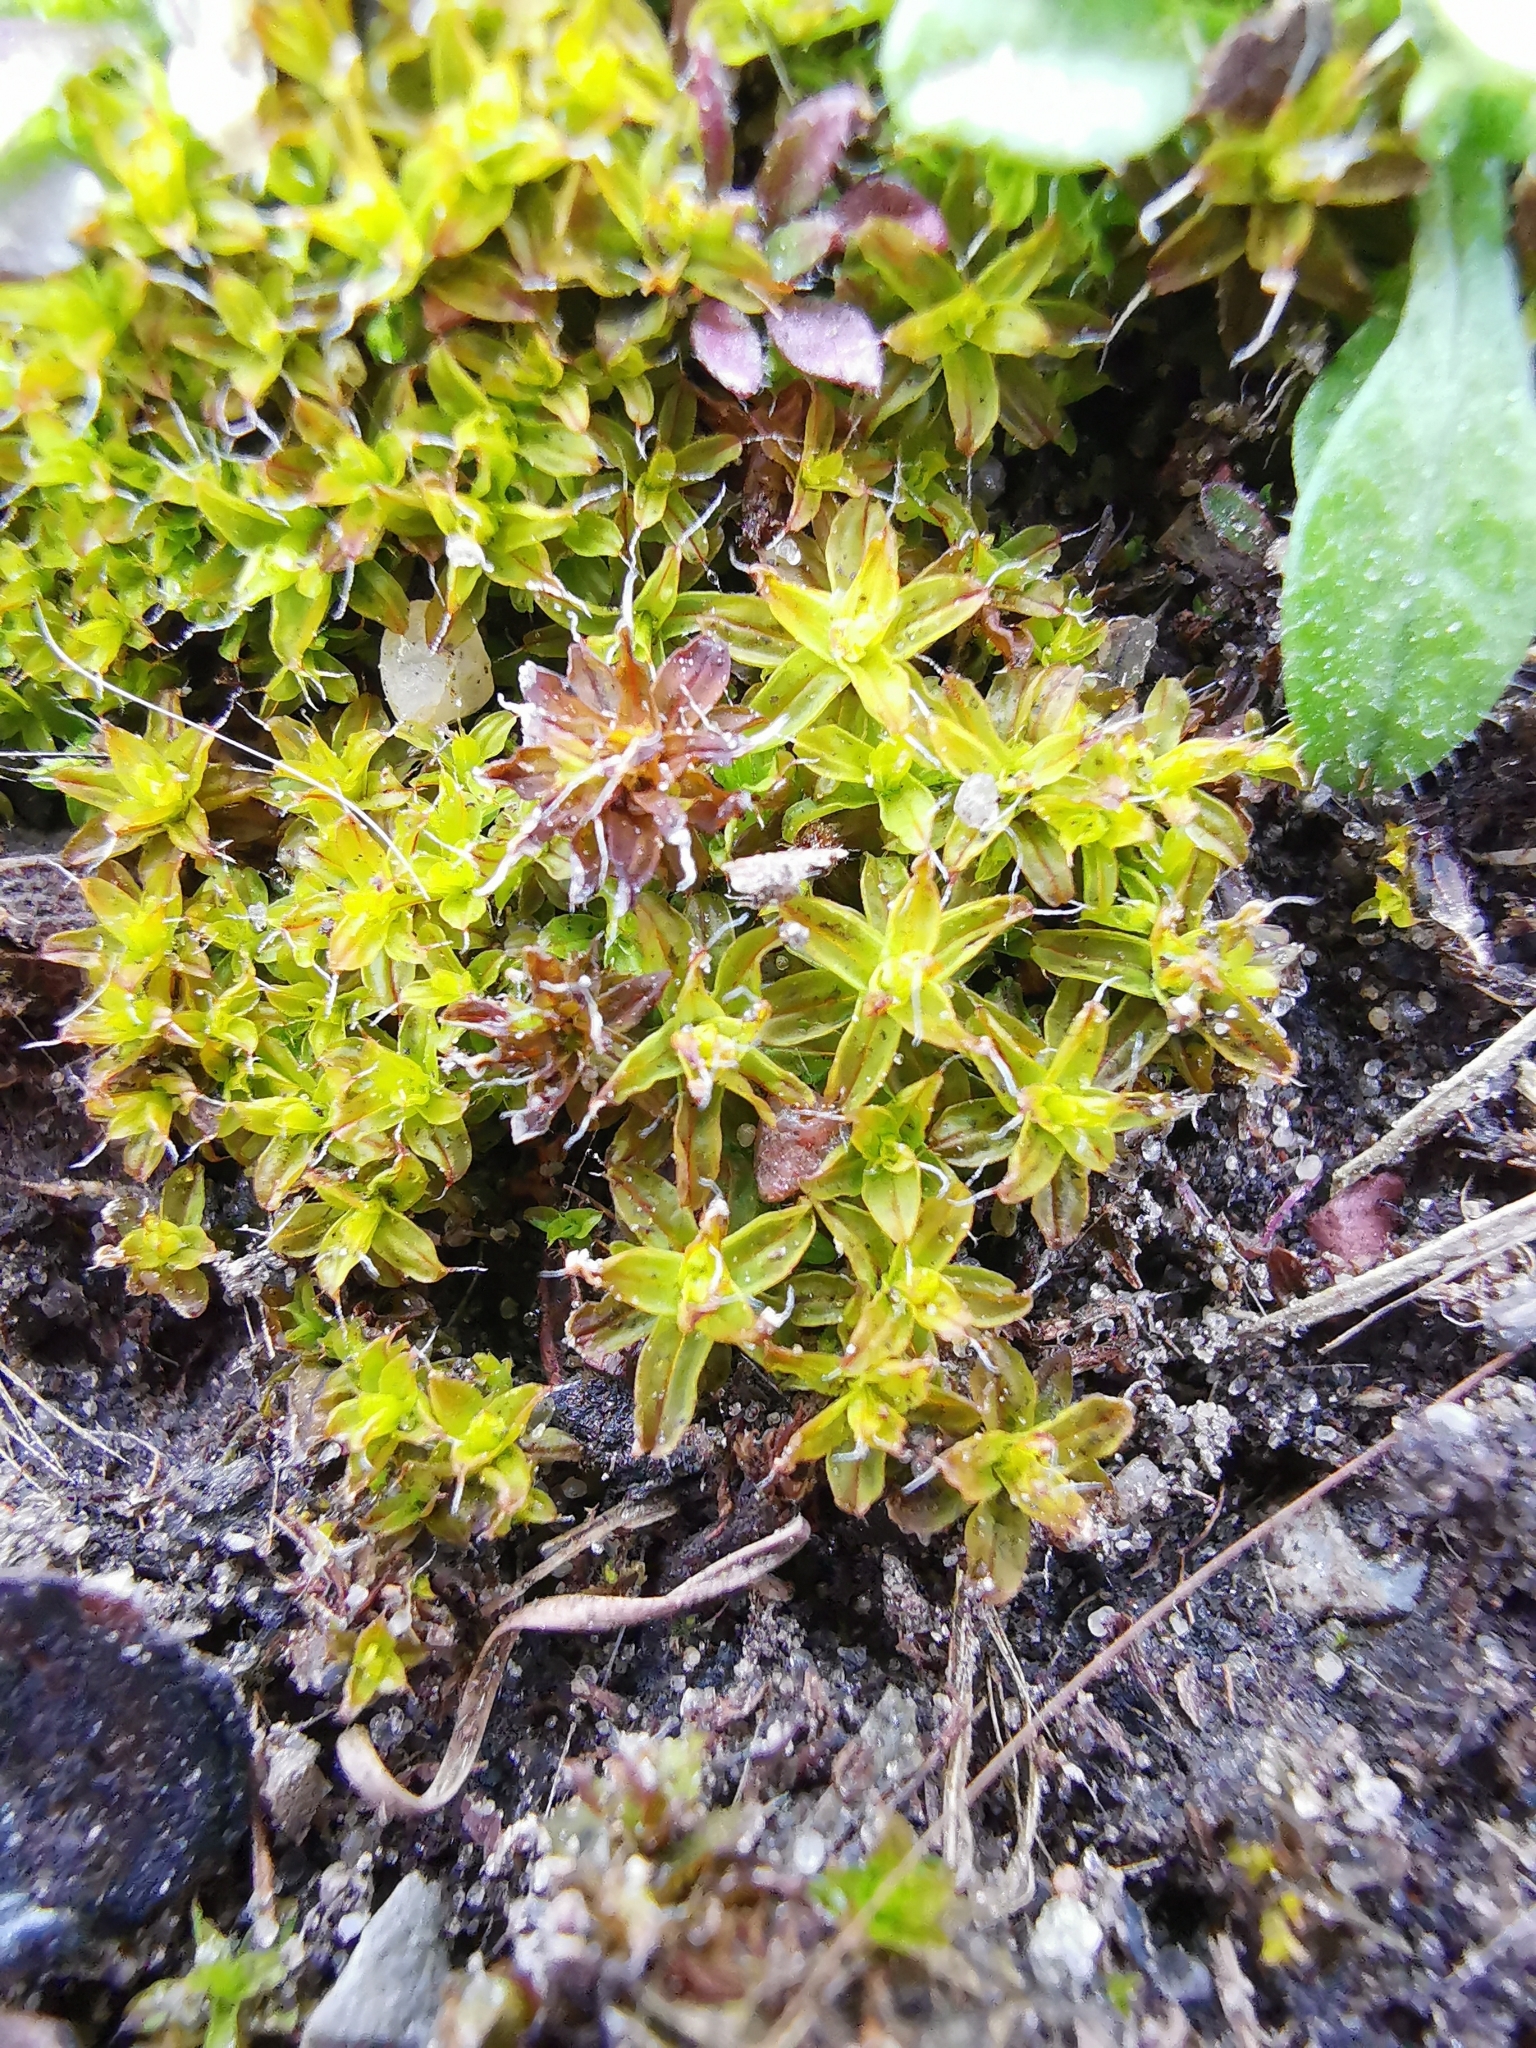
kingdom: Plantae
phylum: Bryophyta
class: Bryopsida
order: Pottiales
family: Pottiaceae
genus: Syntrichia
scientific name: Syntrichia ruralis
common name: Sidewalk screw moss
